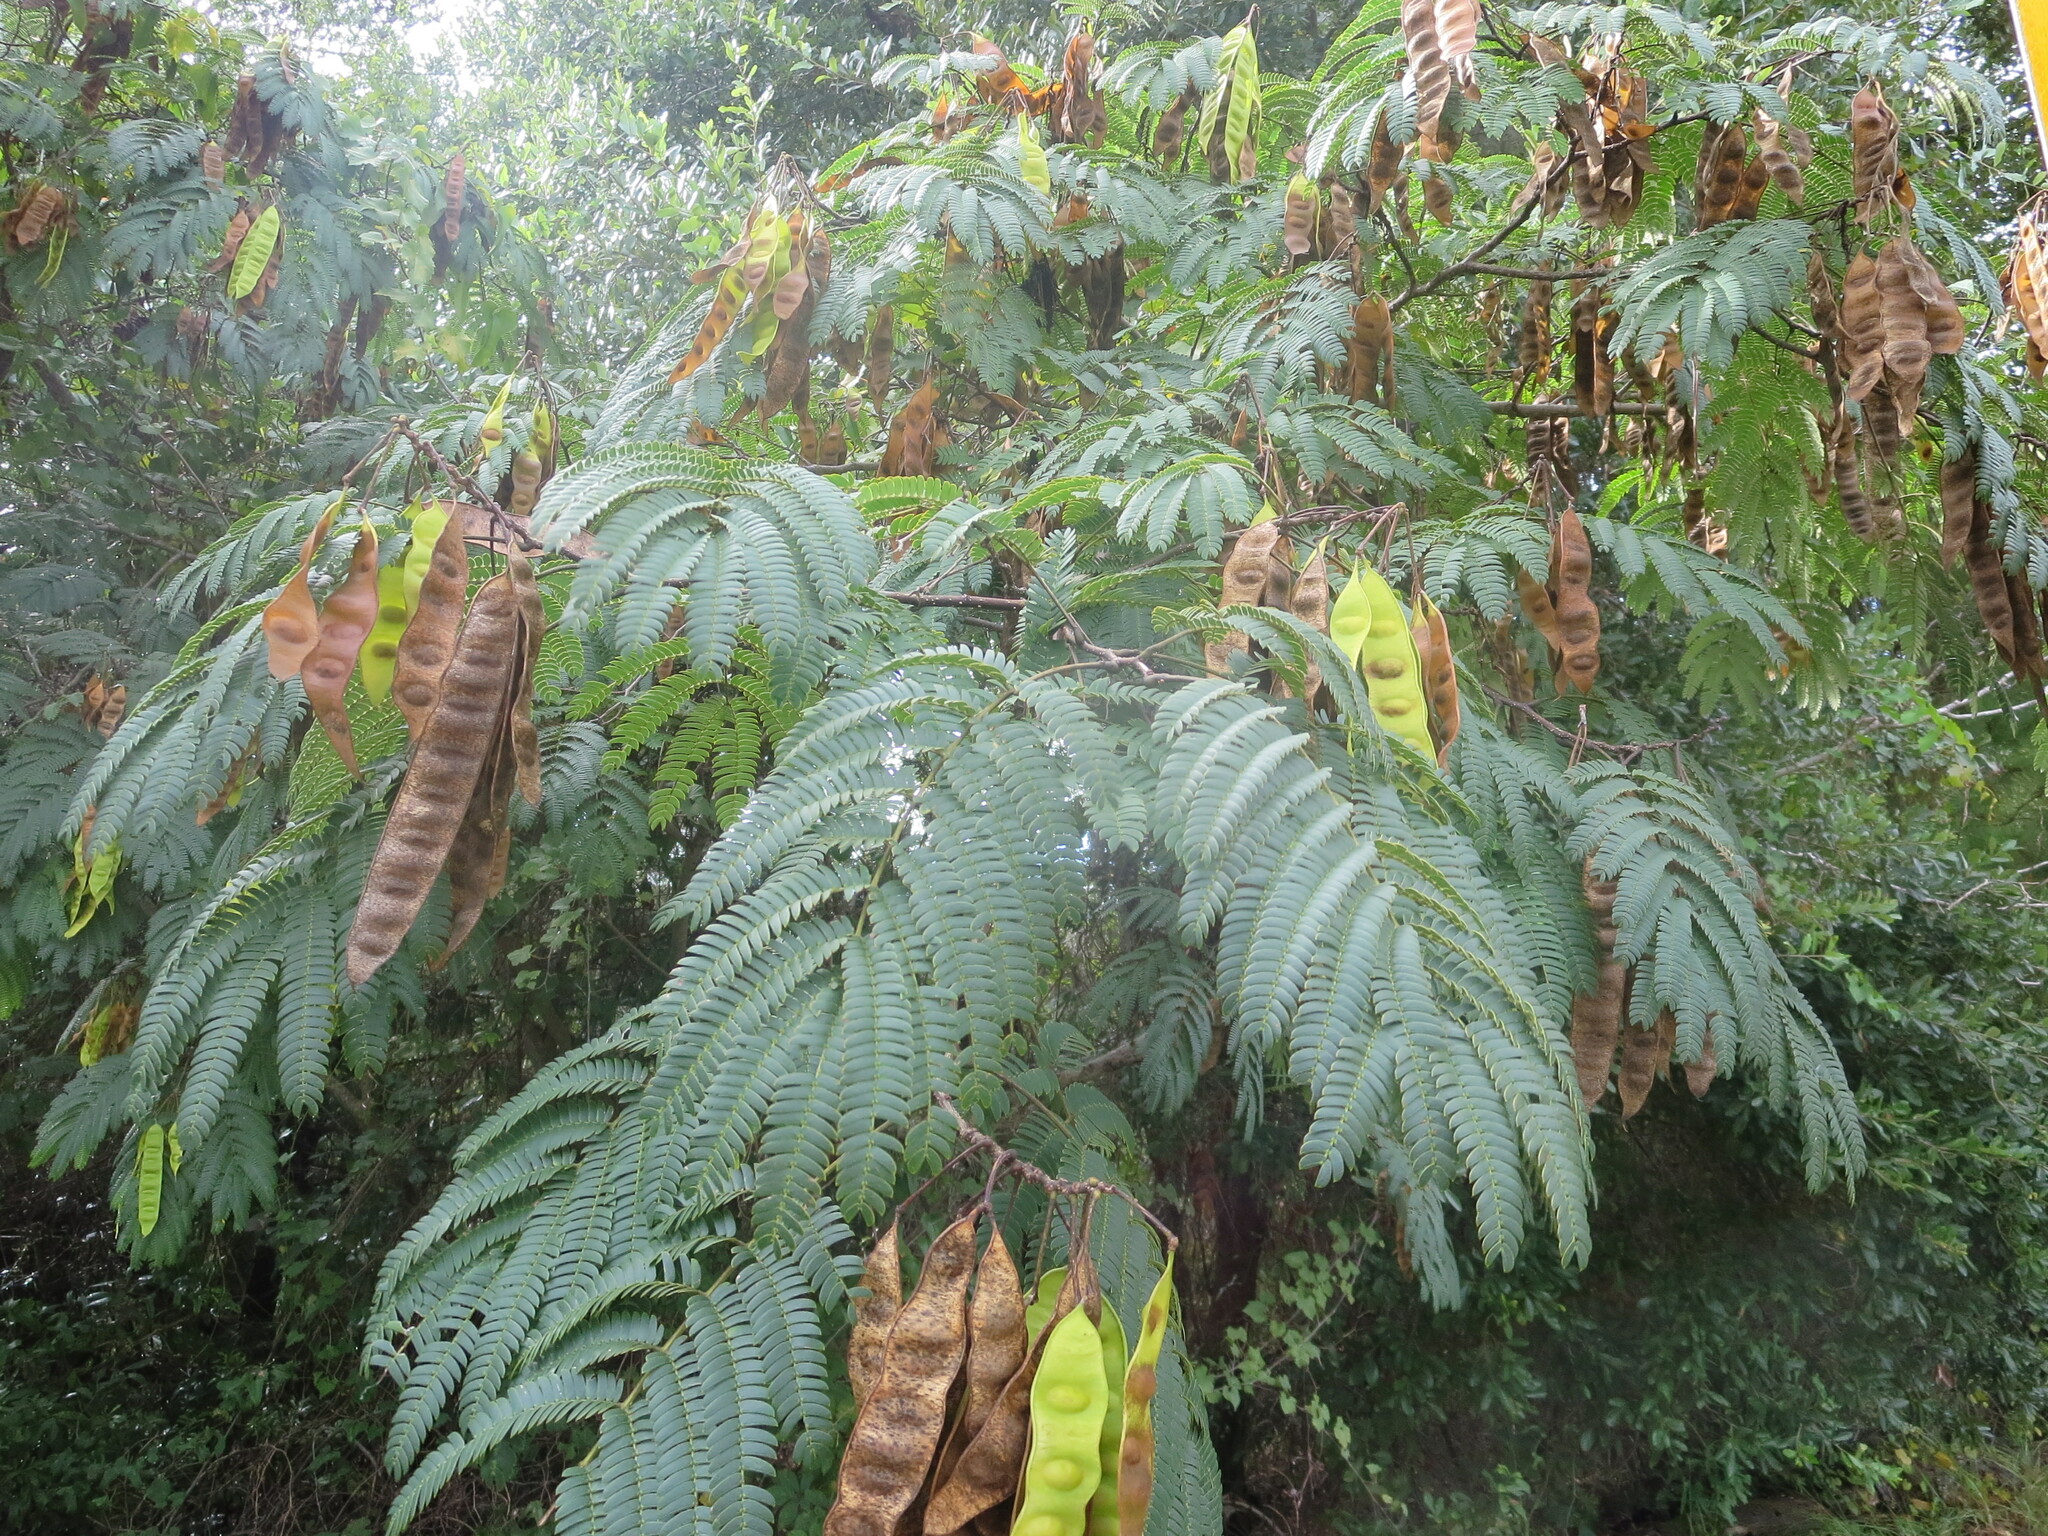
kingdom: Plantae
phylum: Tracheophyta
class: Magnoliopsida
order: Fabales
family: Fabaceae
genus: Albizia
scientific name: Albizia julibrissin
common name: Silktree
